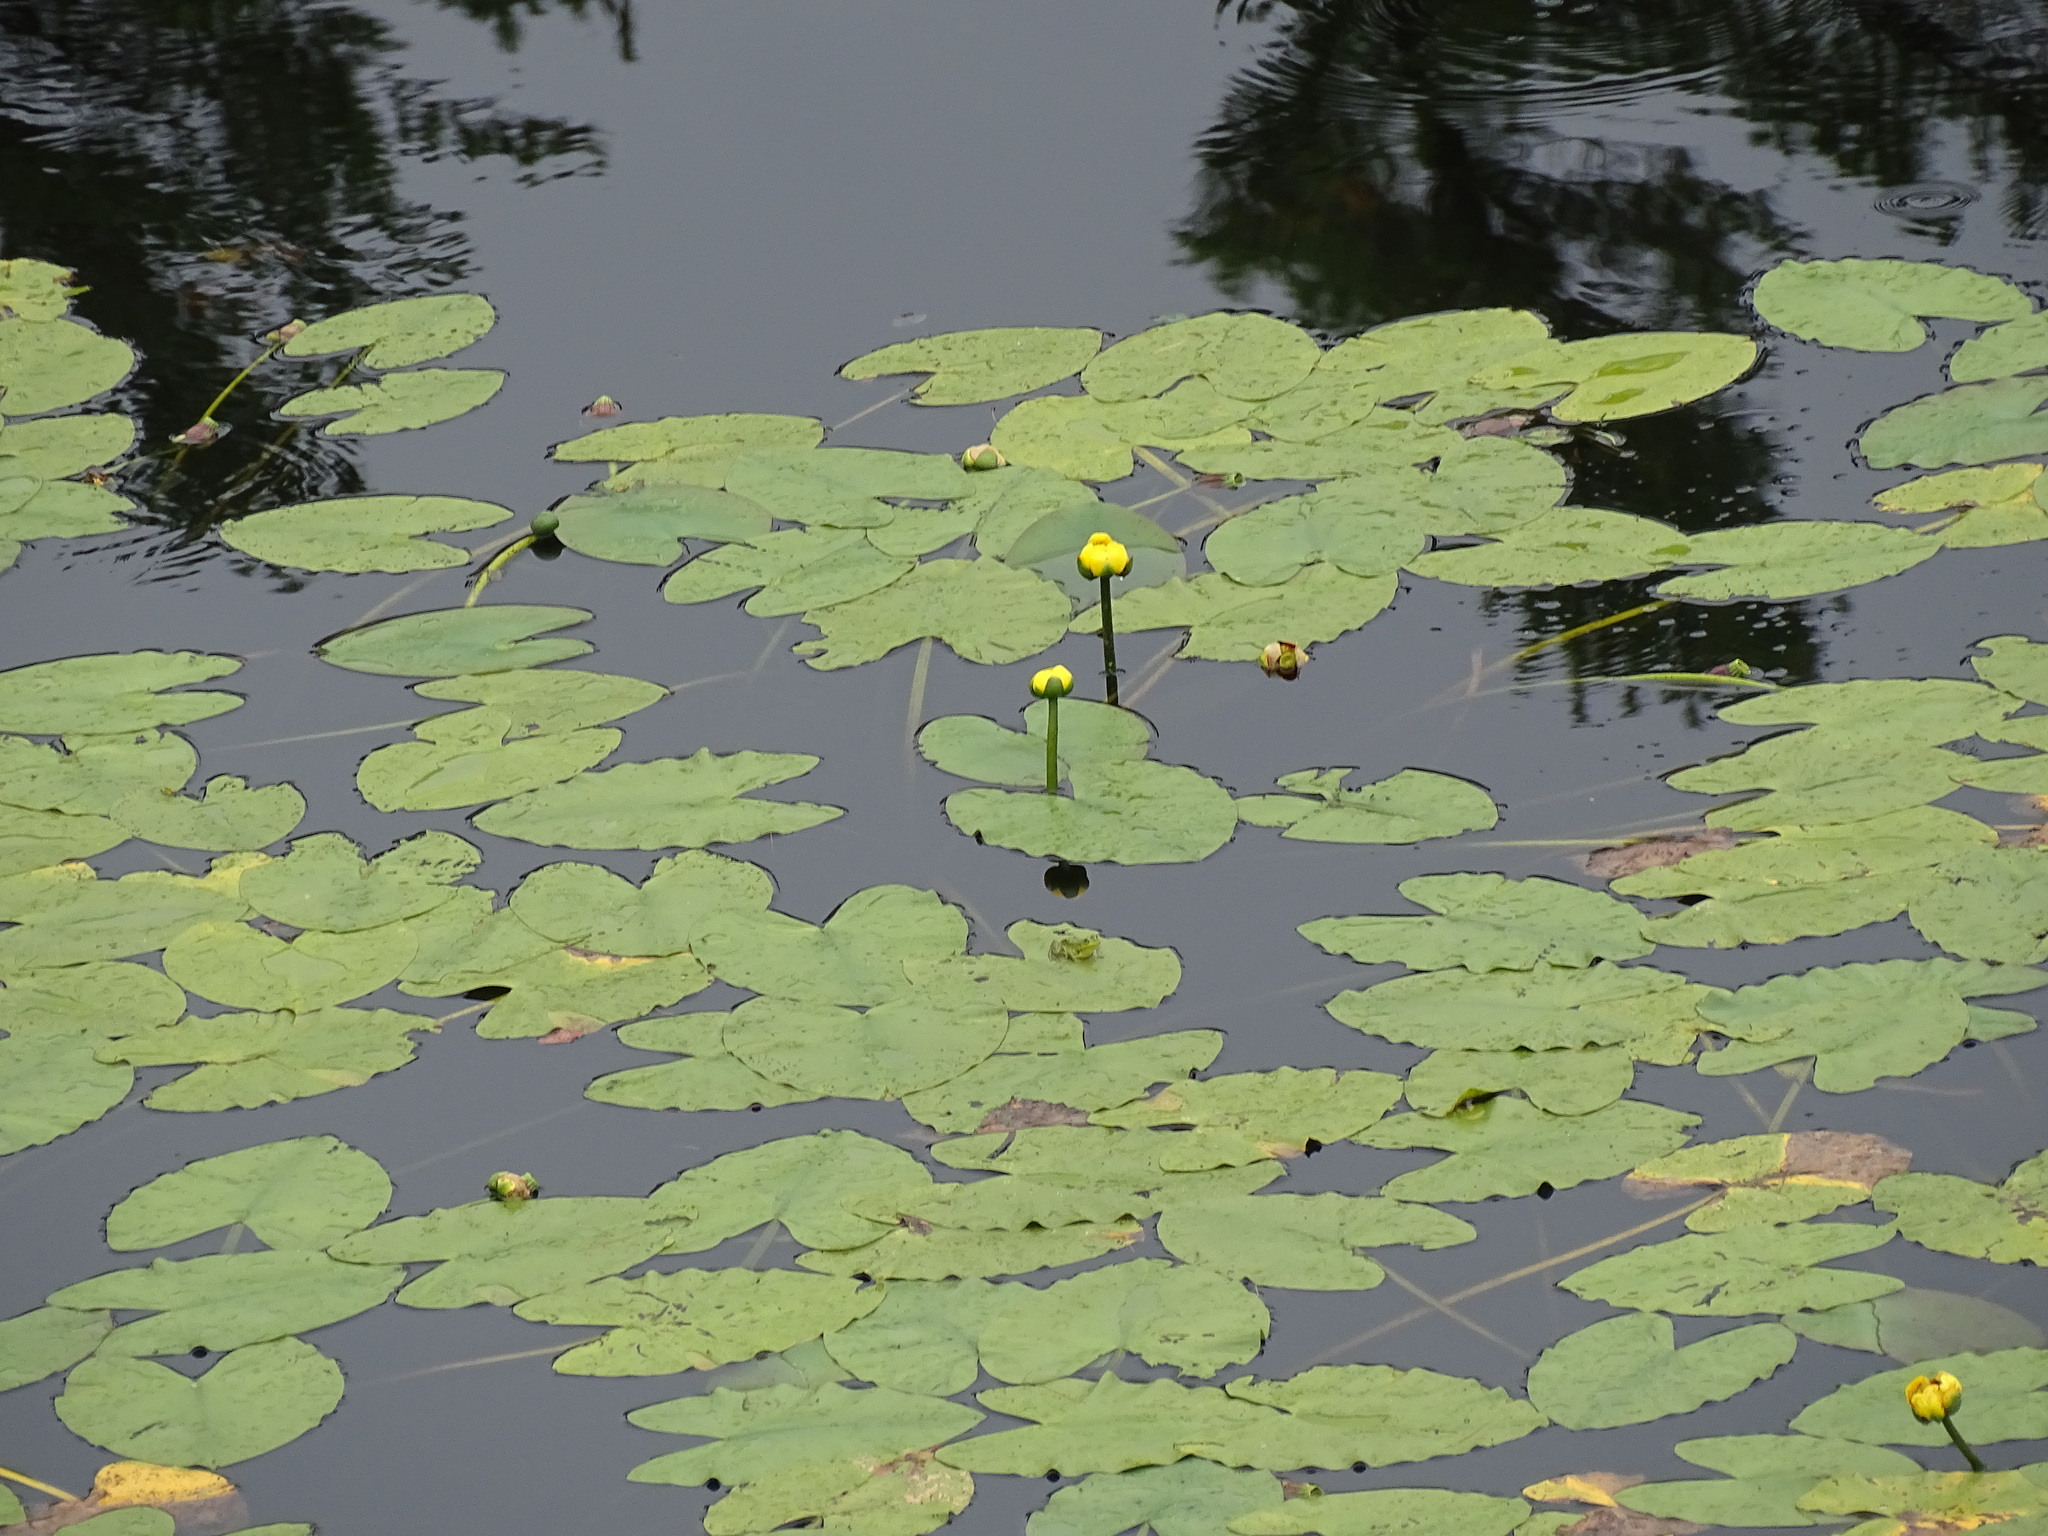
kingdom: Plantae
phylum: Tracheophyta
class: Magnoliopsida
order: Nymphaeales
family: Nymphaeaceae
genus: Nuphar
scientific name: Nuphar variegata
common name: Beaver-root
